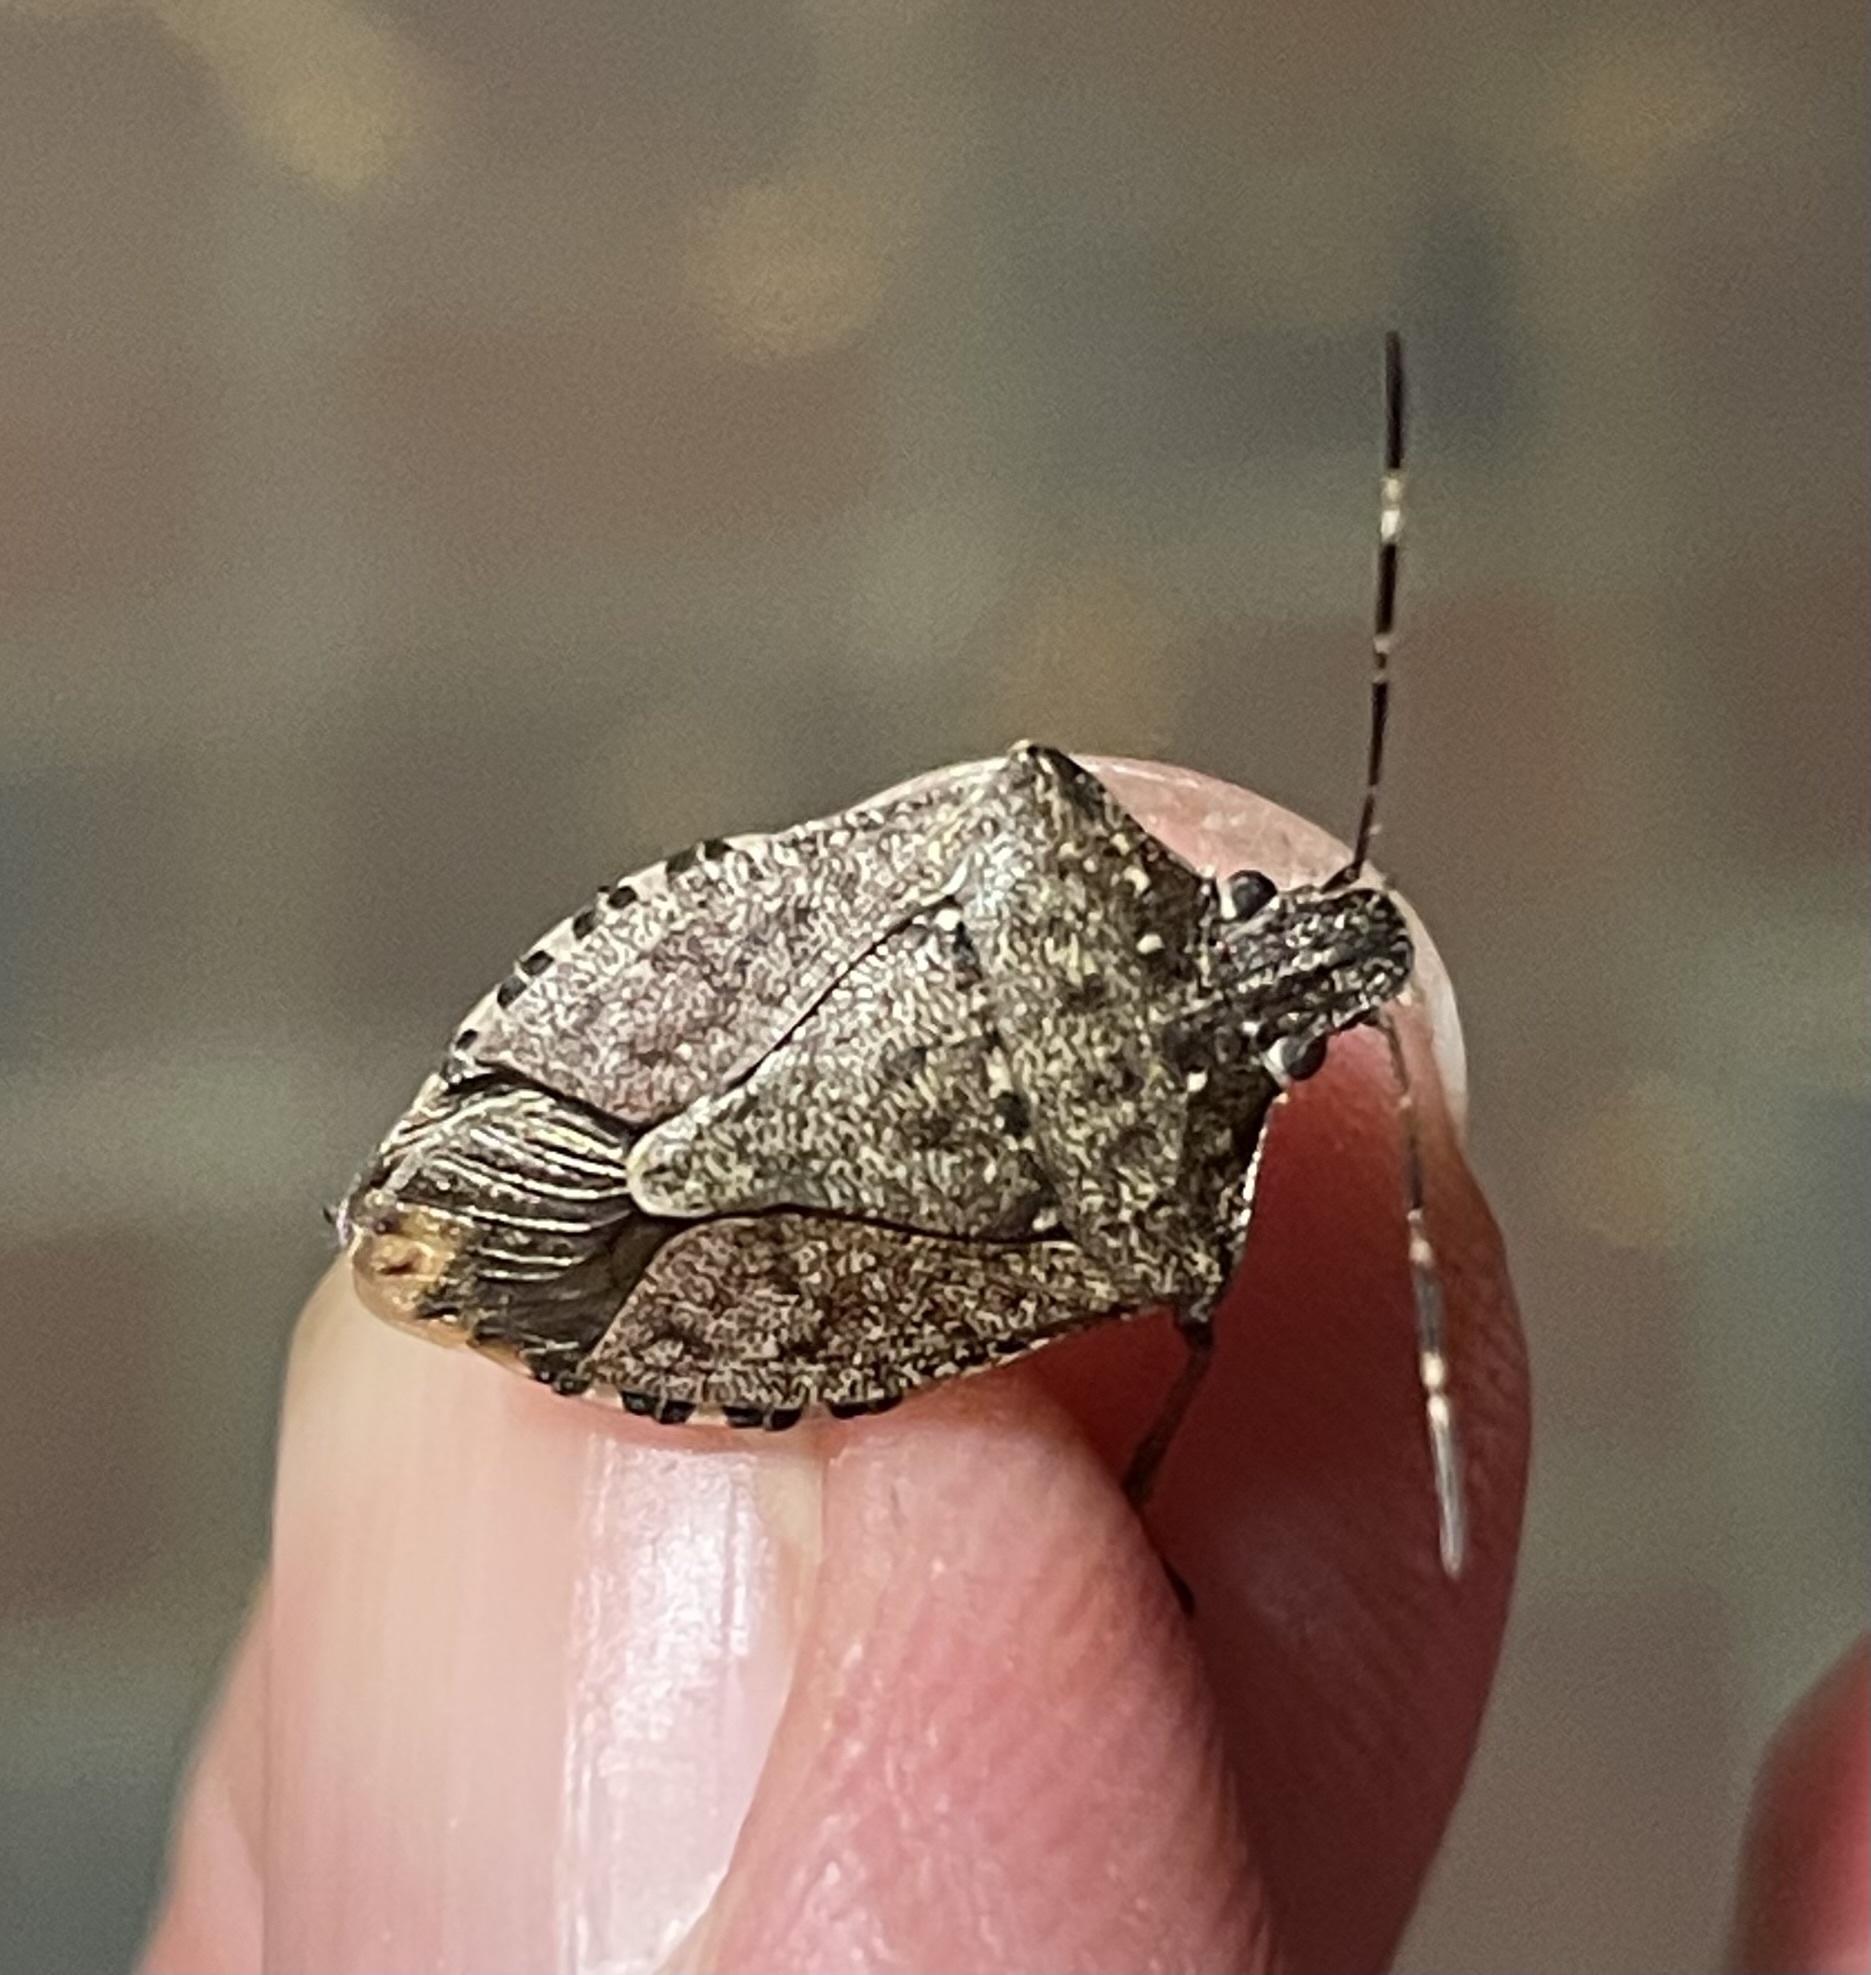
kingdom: Animalia
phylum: Arthropoda
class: Insecta
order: Hemiptera
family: Pentatomidae
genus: Halyomorpha
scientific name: Halyomorpha halys
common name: Brown marmorated stink bug
